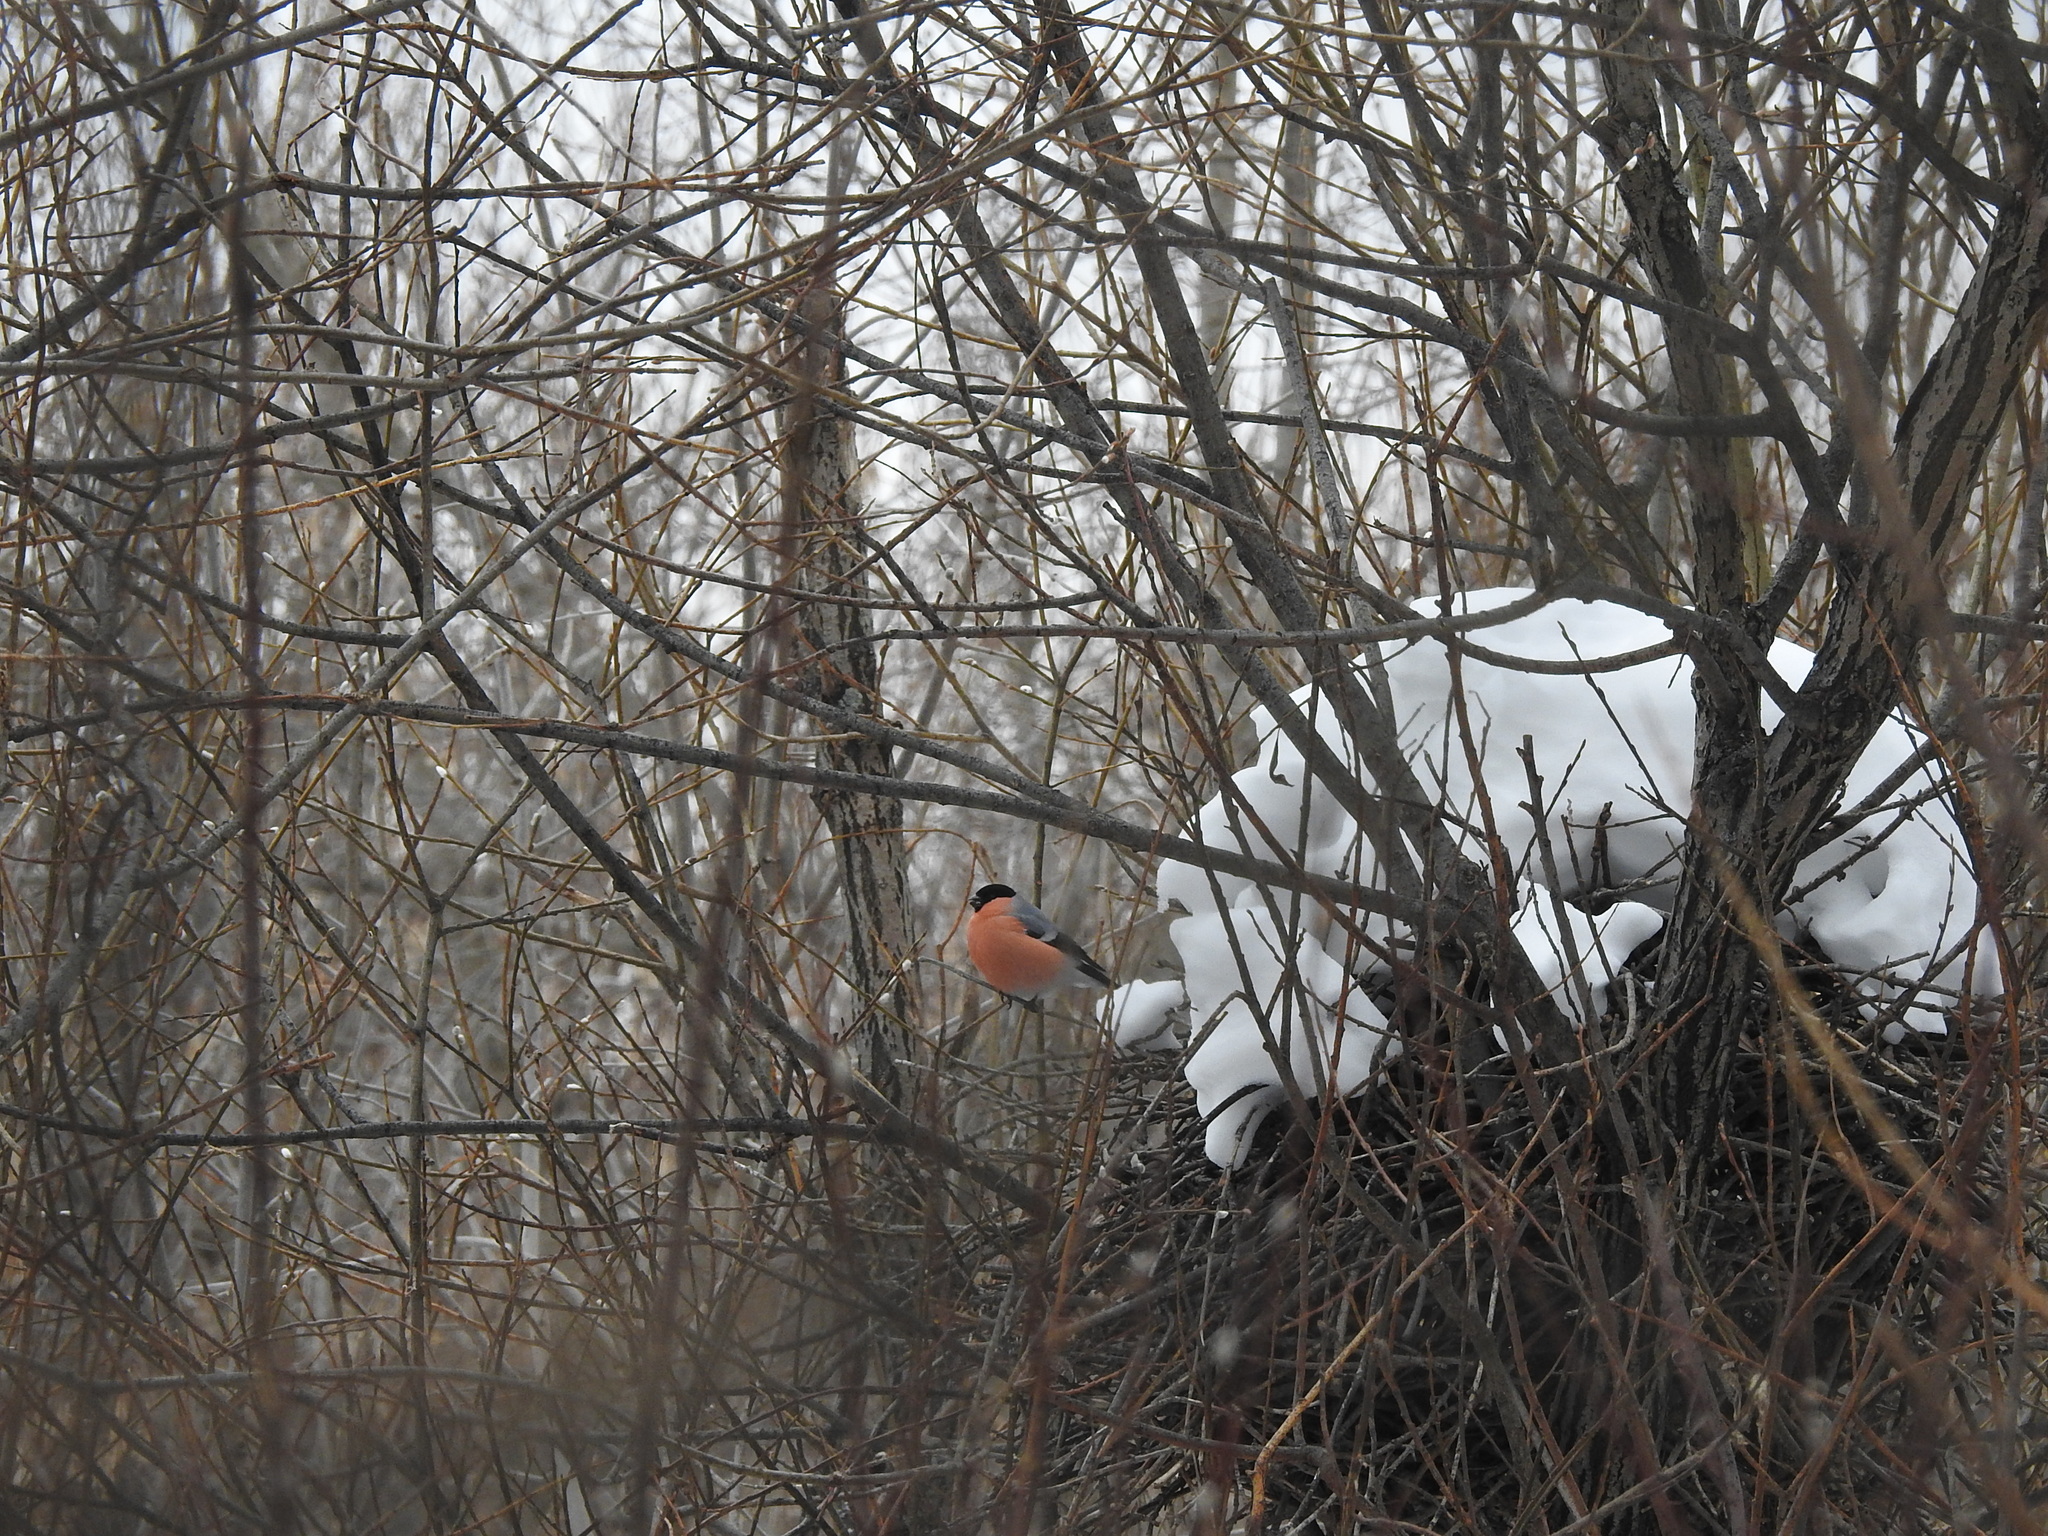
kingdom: Animalia
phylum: Chordata
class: Aves
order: Passeriformes
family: Fringillidae
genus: Pyrrhula
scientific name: Pyrrhula pyrrhula
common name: Eurasian bullfinch
